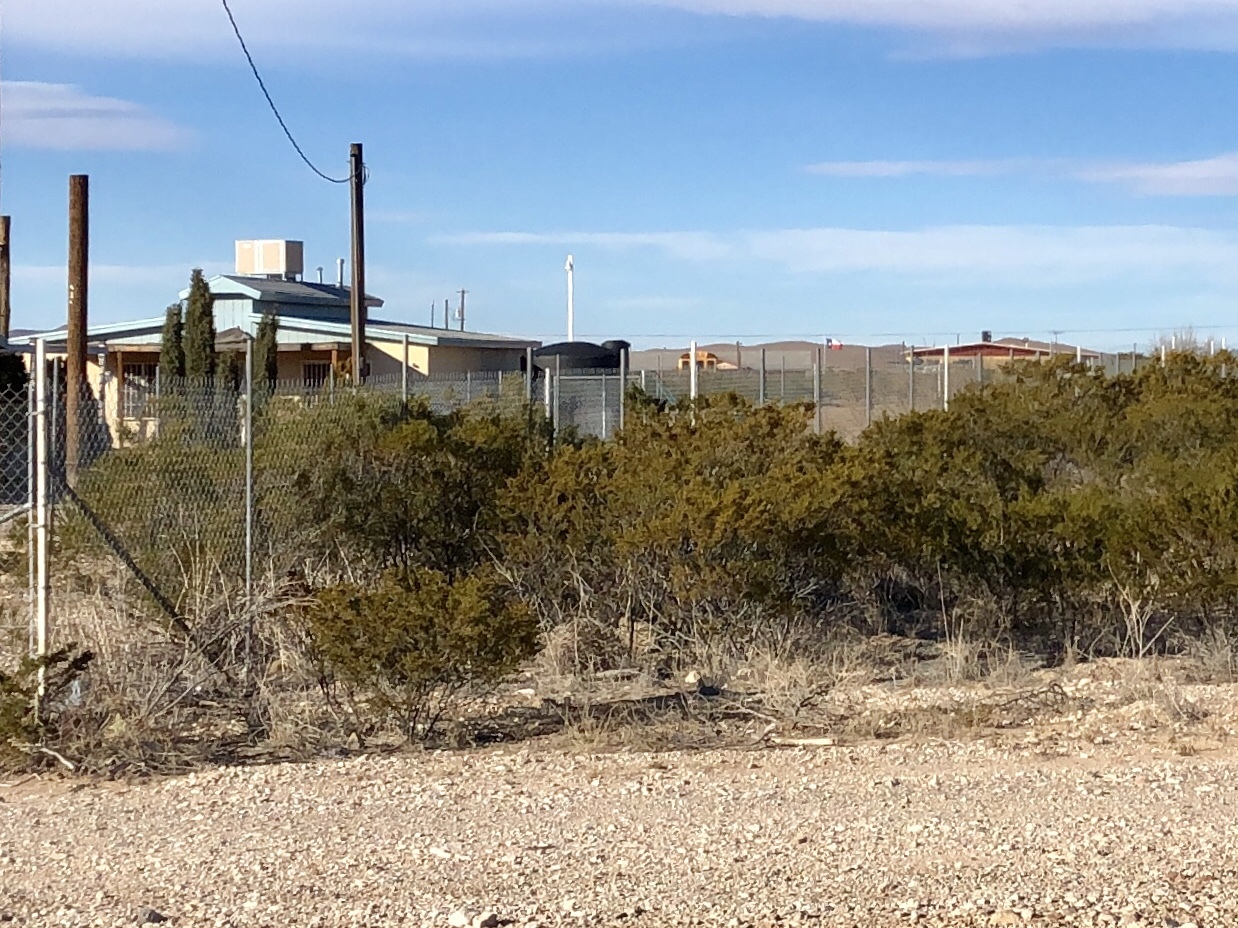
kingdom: Plantae
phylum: Tracheophyta
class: Magnoliopsida
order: Zygophyllales
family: Zygophyllaceae
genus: Larrea
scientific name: Larrea tridentata
